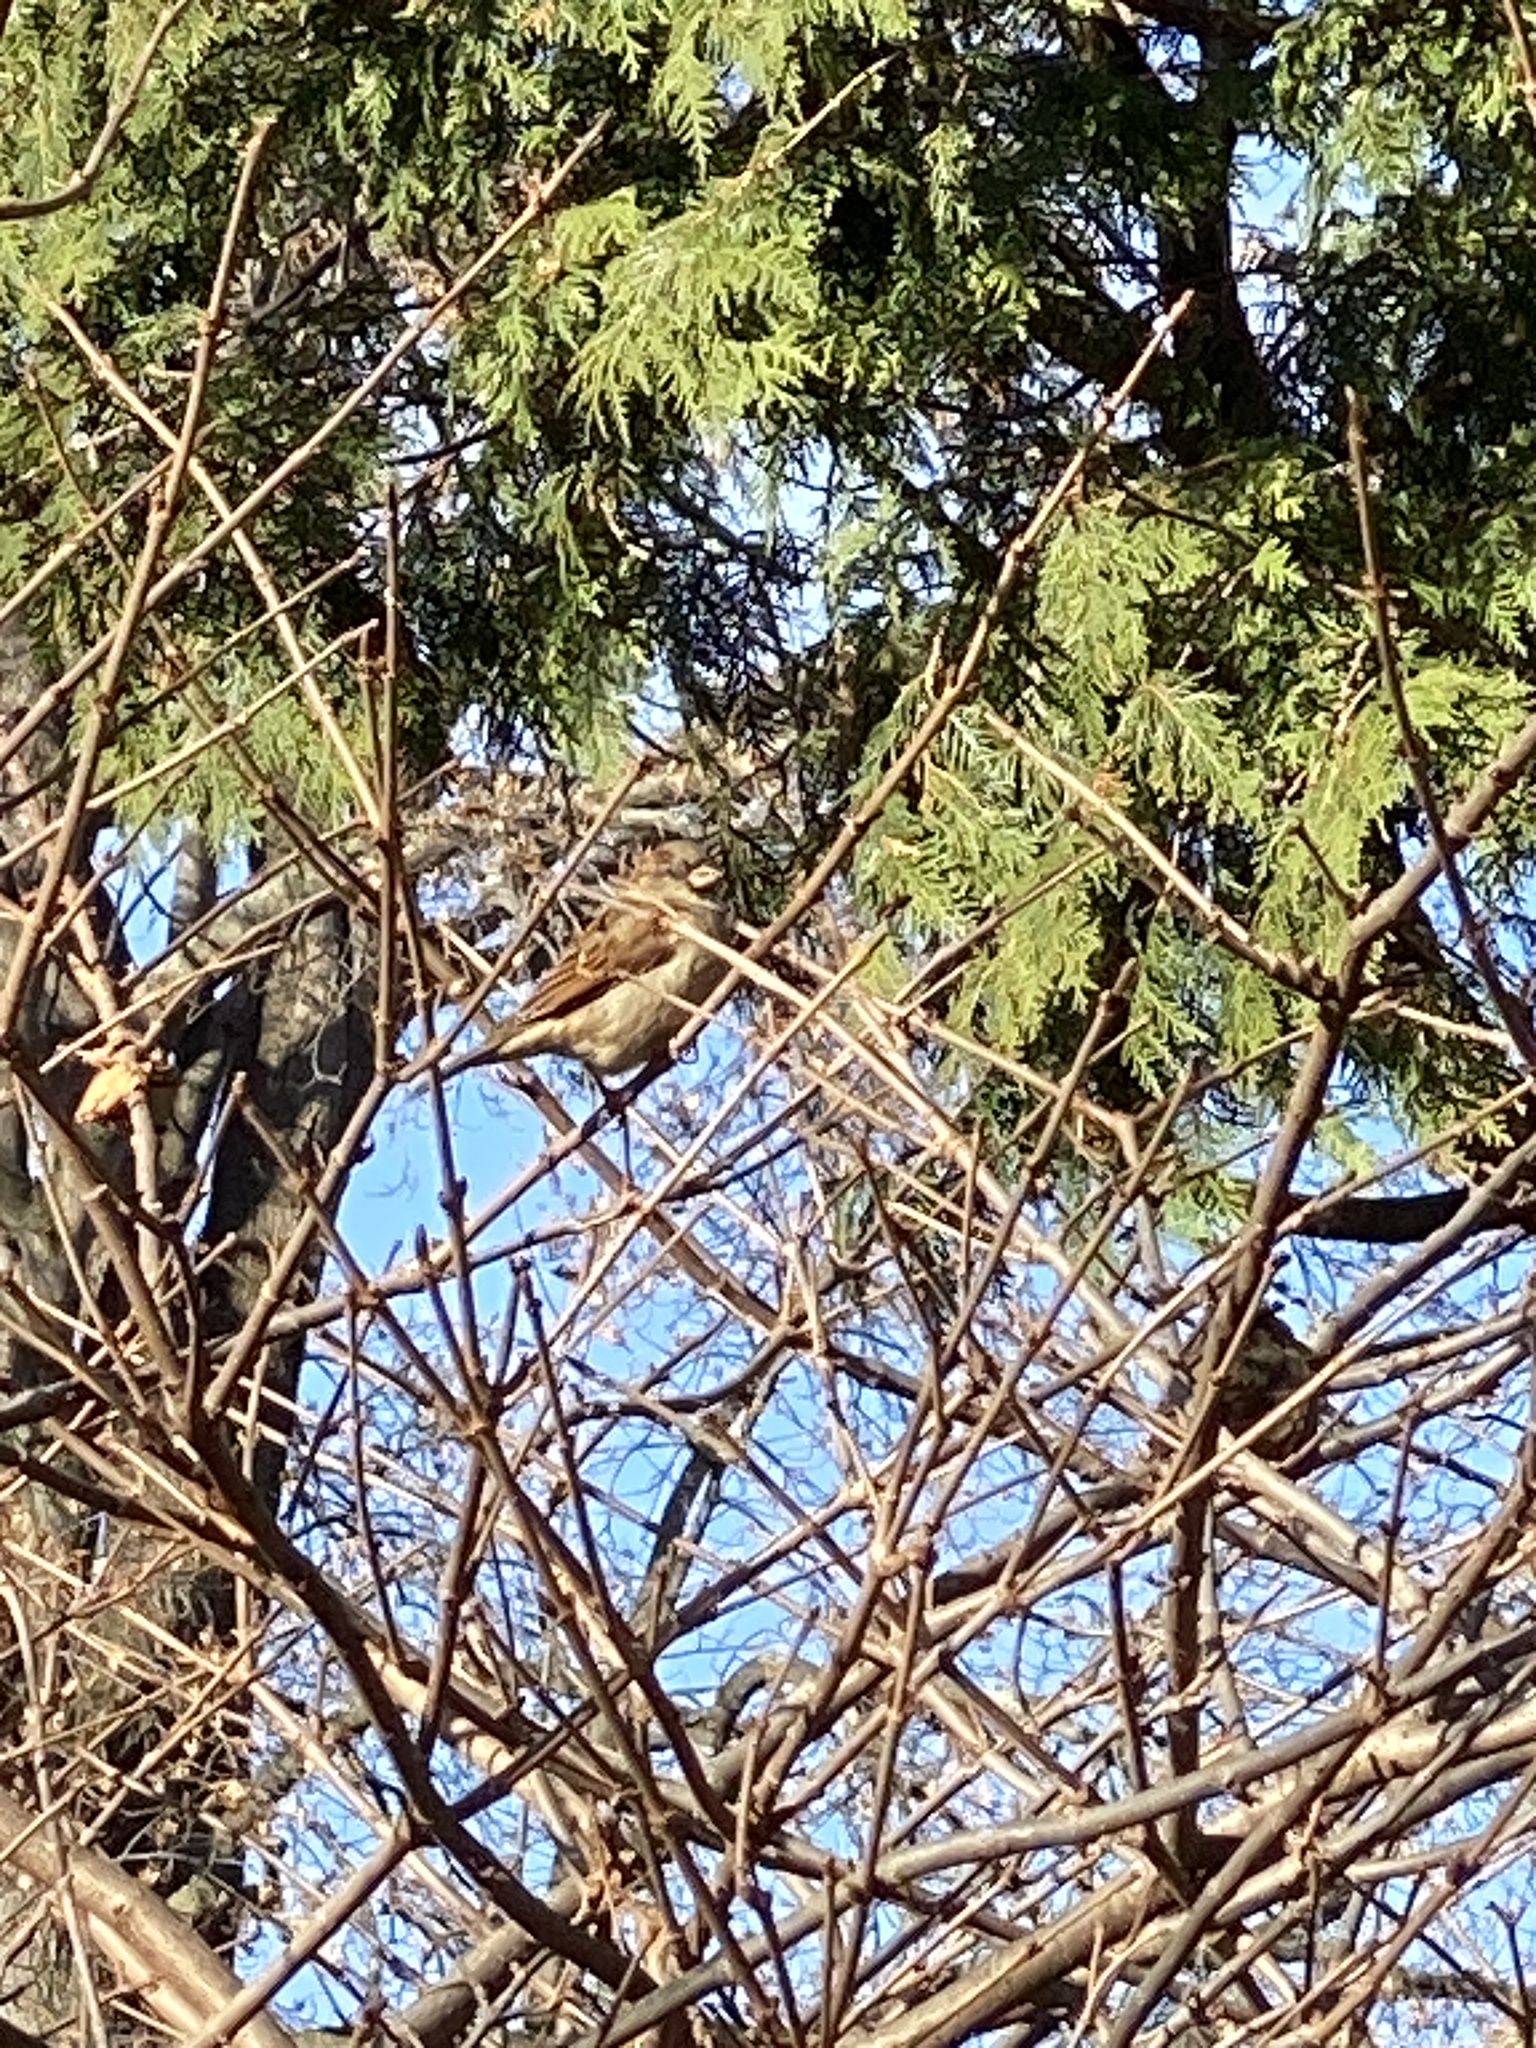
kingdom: Animalia
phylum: Chordata
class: Aves
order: Passeriformes
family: Passeridae
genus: Passer
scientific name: Passer domesticus
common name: House sparrow
